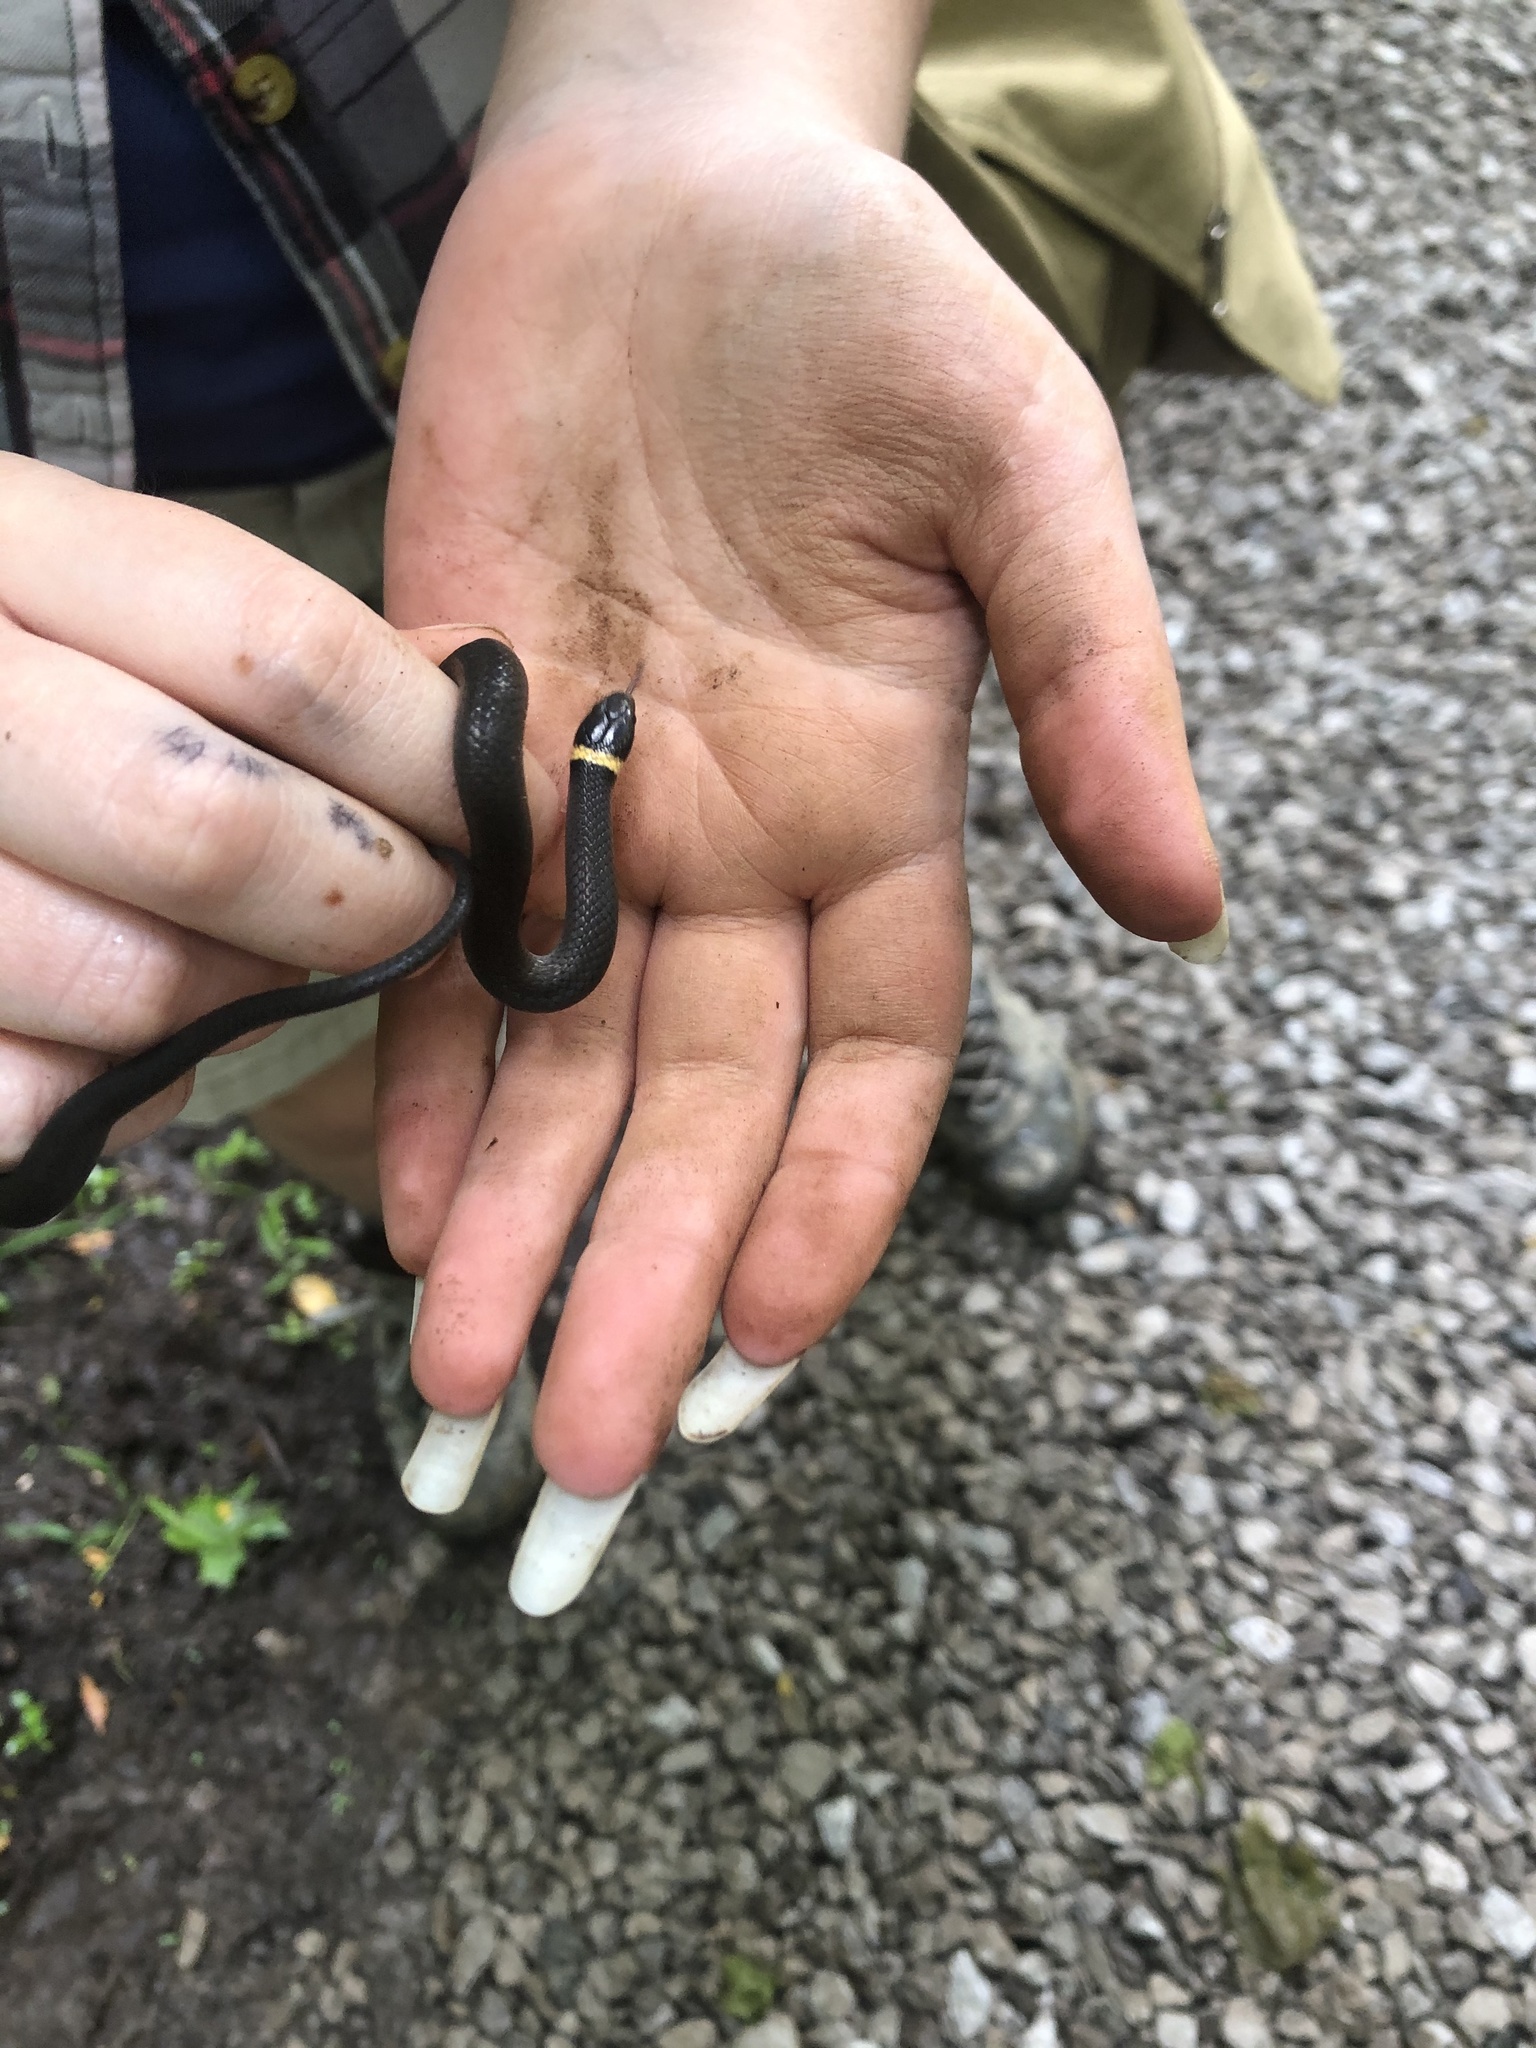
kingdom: Animalia
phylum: Chordata
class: Squamata
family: Colubridae
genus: Diadophis
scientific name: Diadophis punctatus
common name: Ringneck snake
